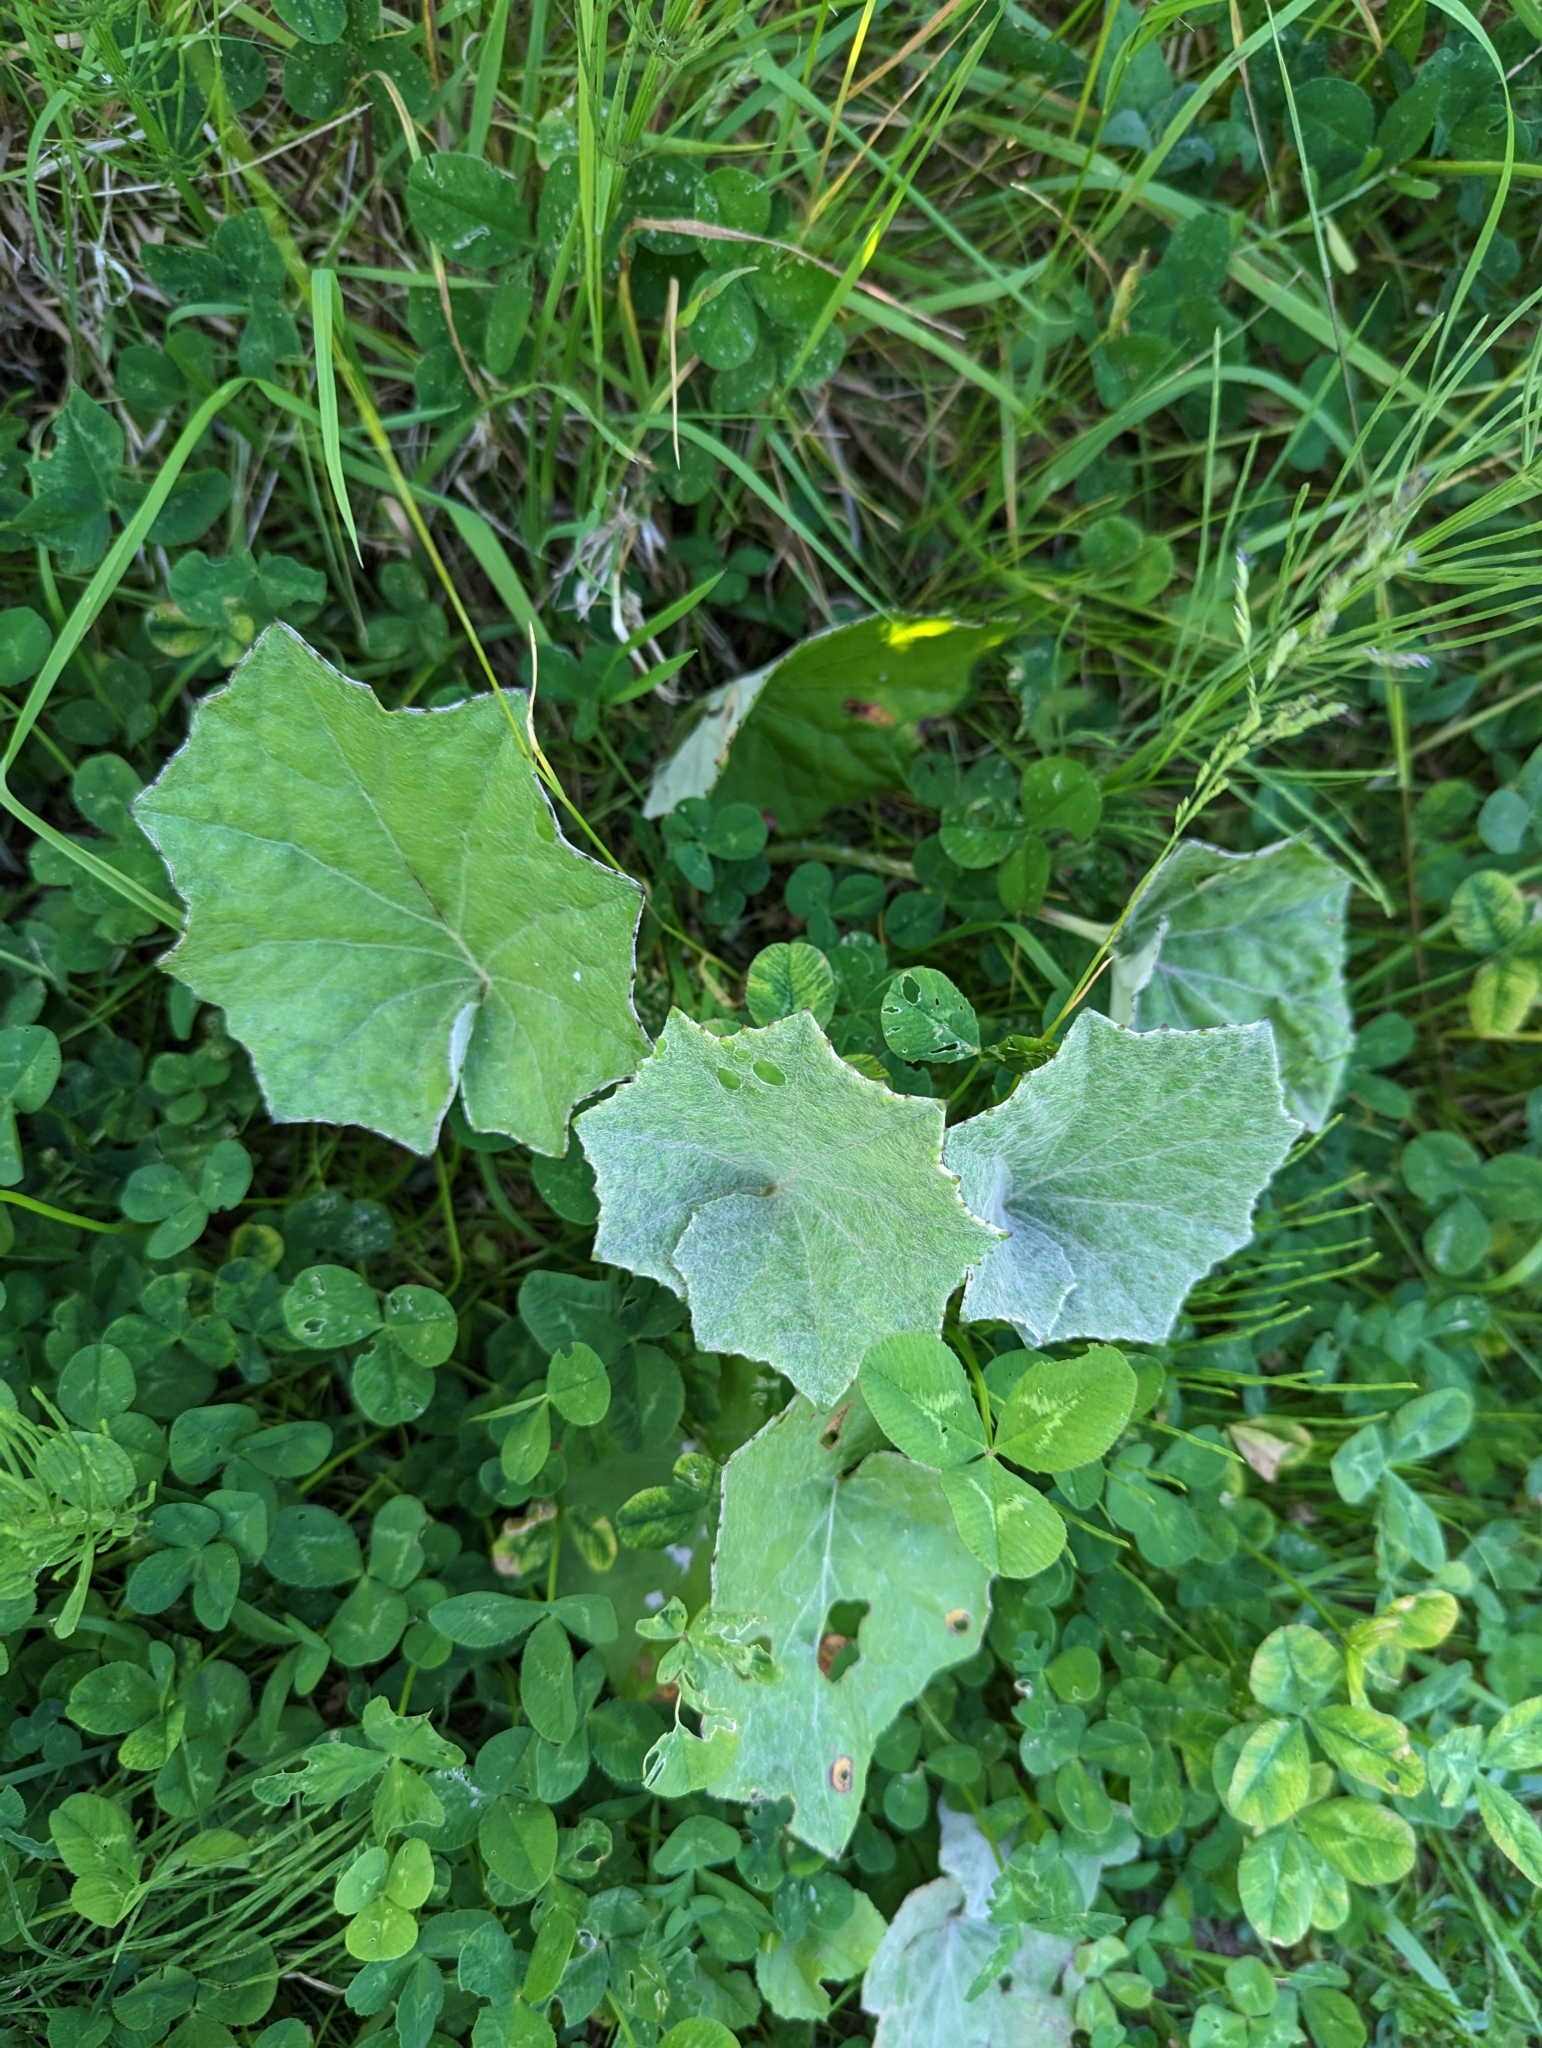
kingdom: Plantae
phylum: Tracheophyta
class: Magnoliopsida
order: Asterales
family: Asteraceae
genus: Tussilago
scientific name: Tussilago farfara
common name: Coltsfoot
